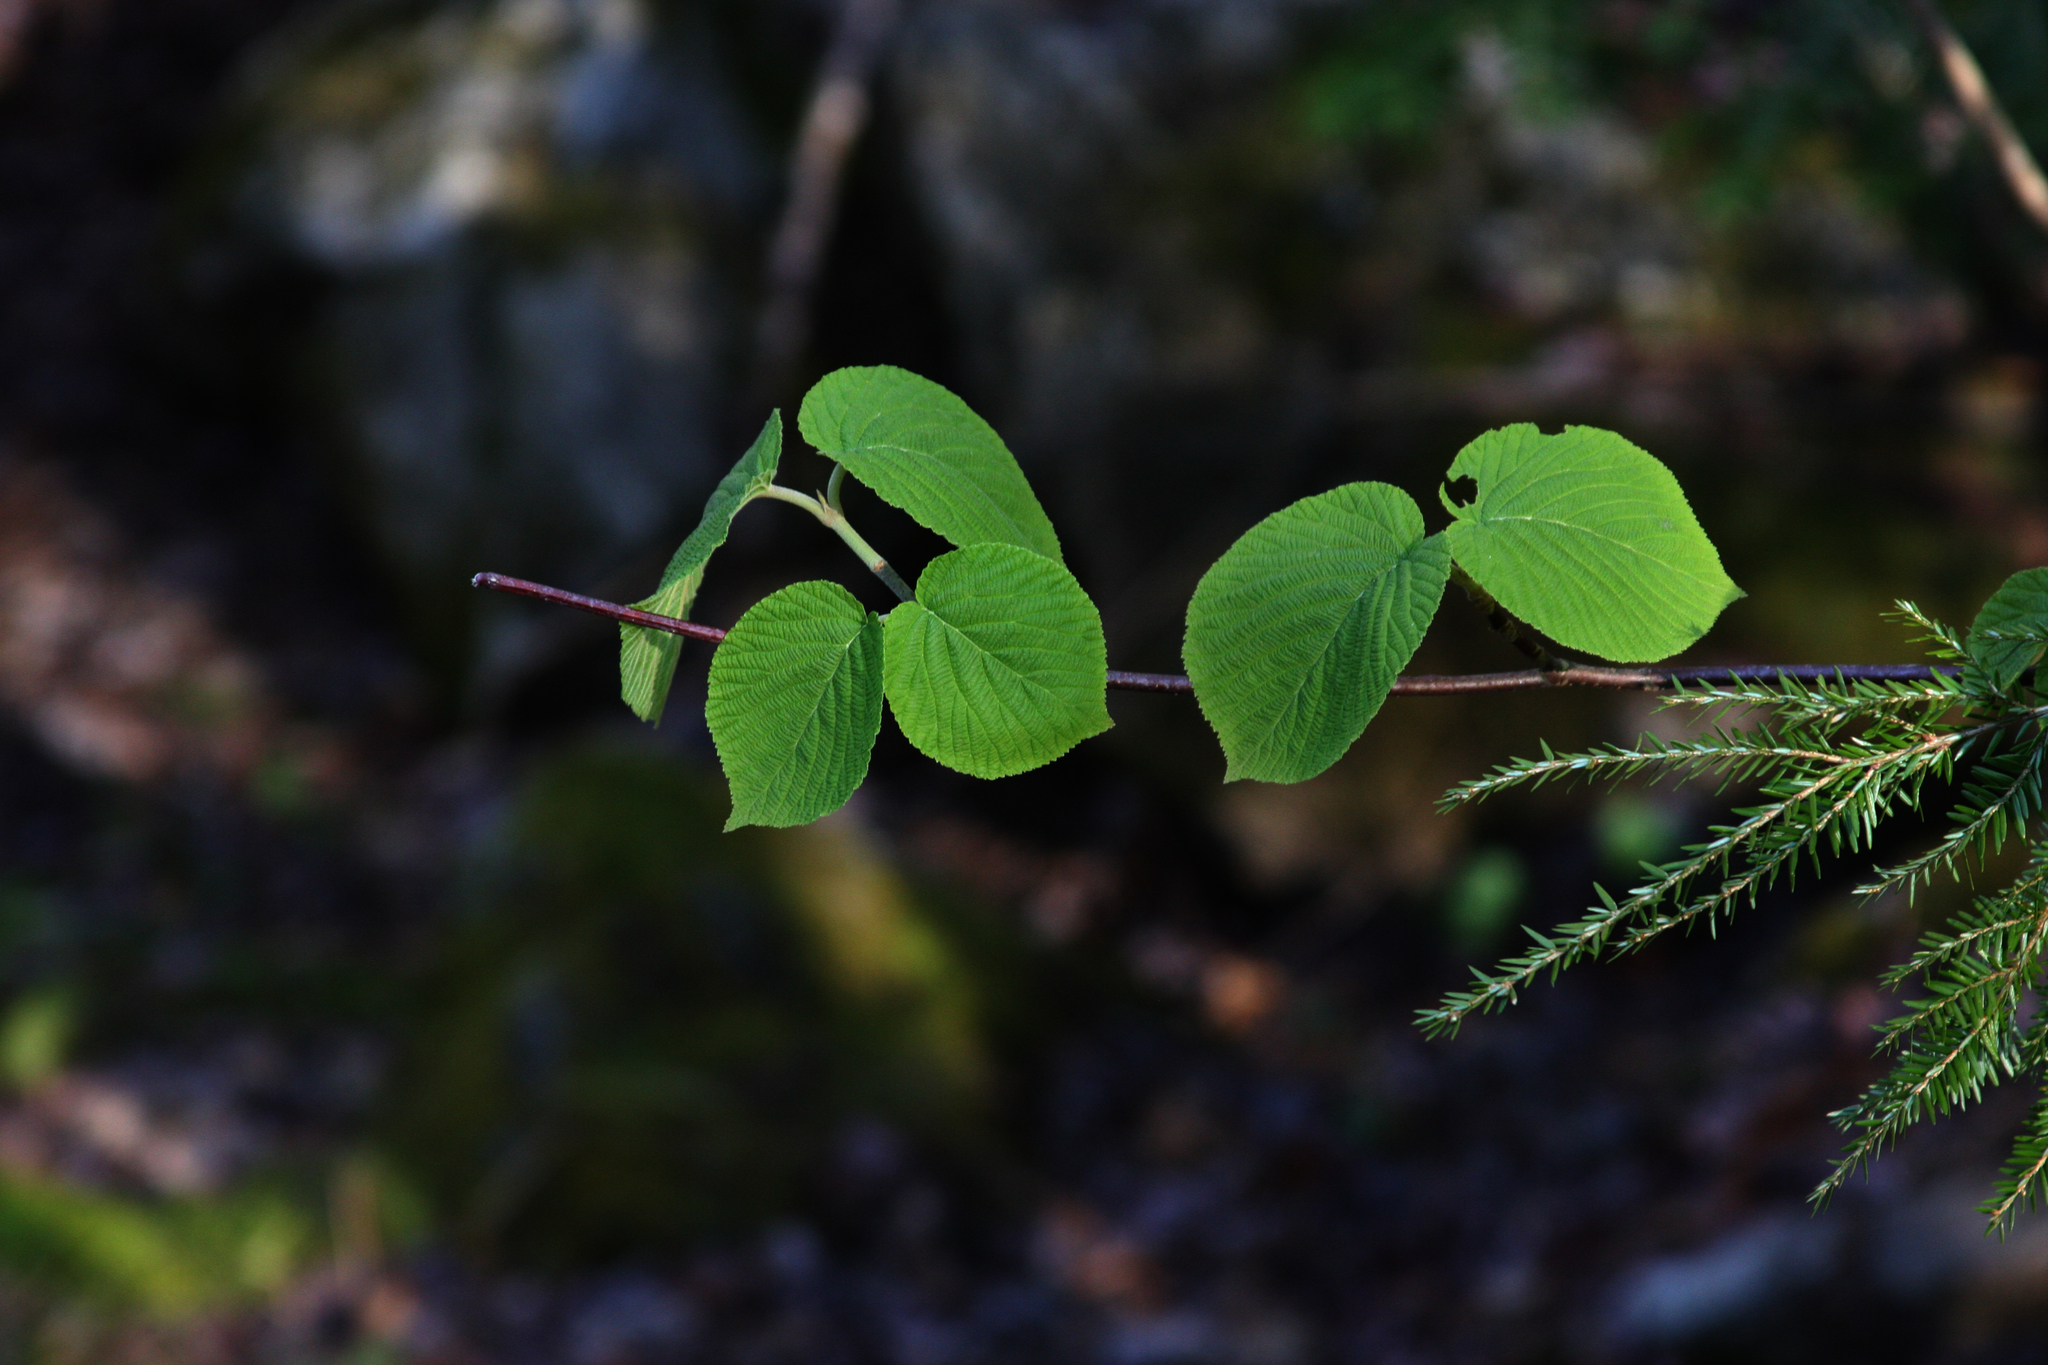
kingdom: Plantae
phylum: Tracheophyta
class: Magnoliopsida
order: Dipsacales
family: Viburnaceae
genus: Viburnum
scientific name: Viburnum lantanoides
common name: Hobblebush
